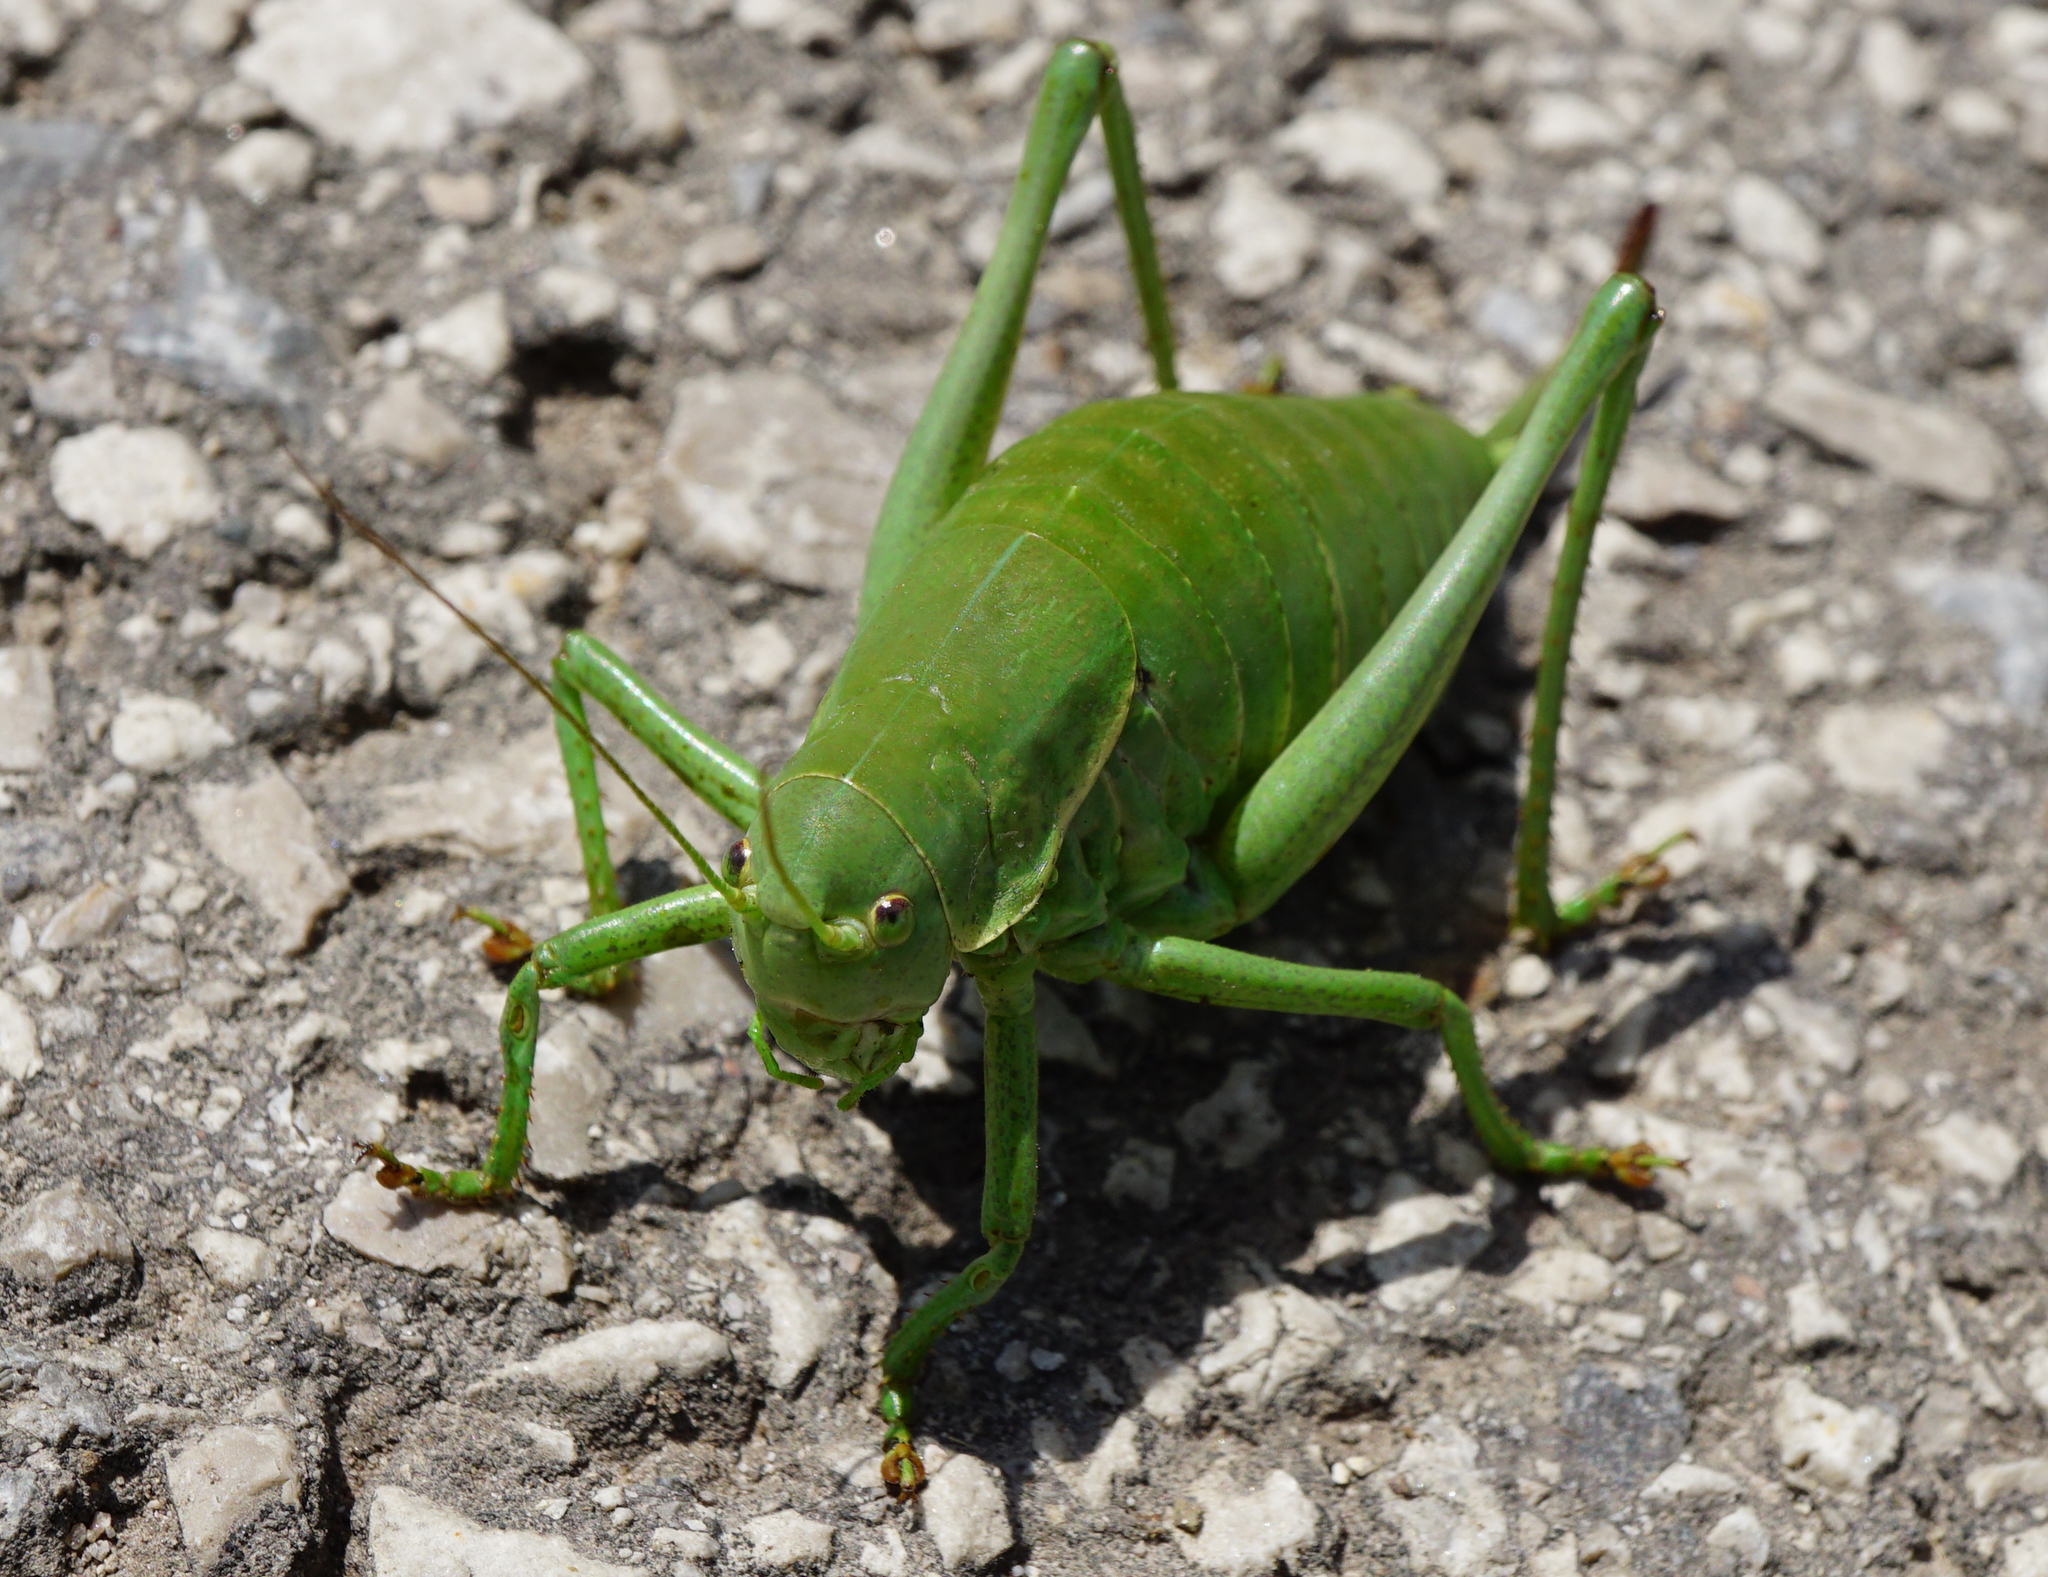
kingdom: Animalia
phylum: Arthropoda
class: Insecta
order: Orthoptera
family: Tettigoniidae
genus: Polysarcus
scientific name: Polysarcus denticauda
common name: Large saw-tailed bush-cricket
